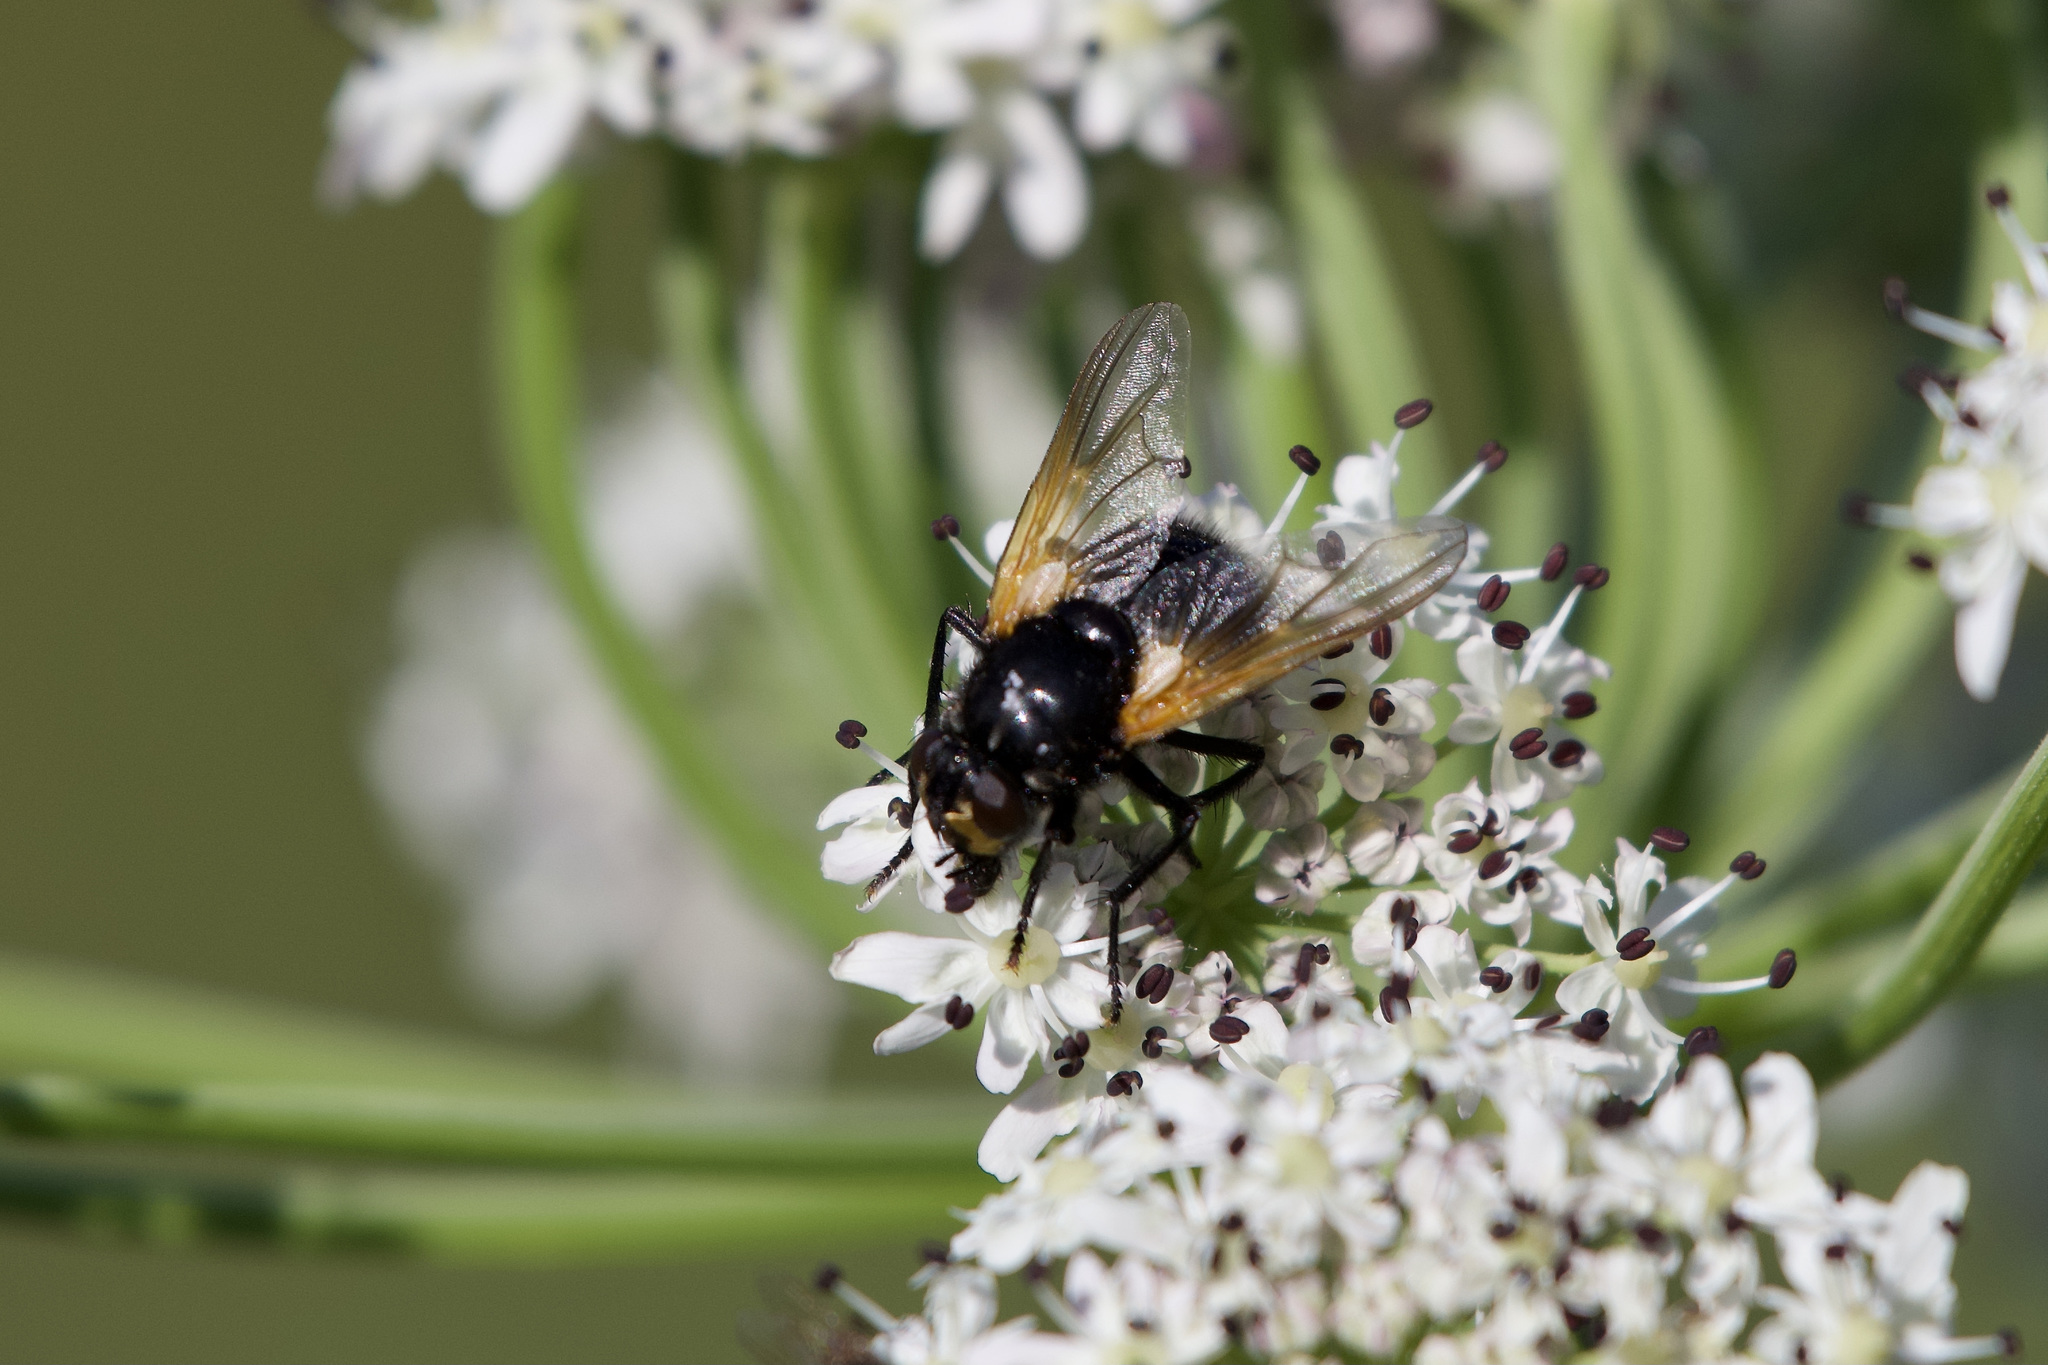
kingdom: Animalia
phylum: Arthropoda
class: Insecta
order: Diptera
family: Muscidae
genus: Mesembrina
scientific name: Mesembrina meridiana
